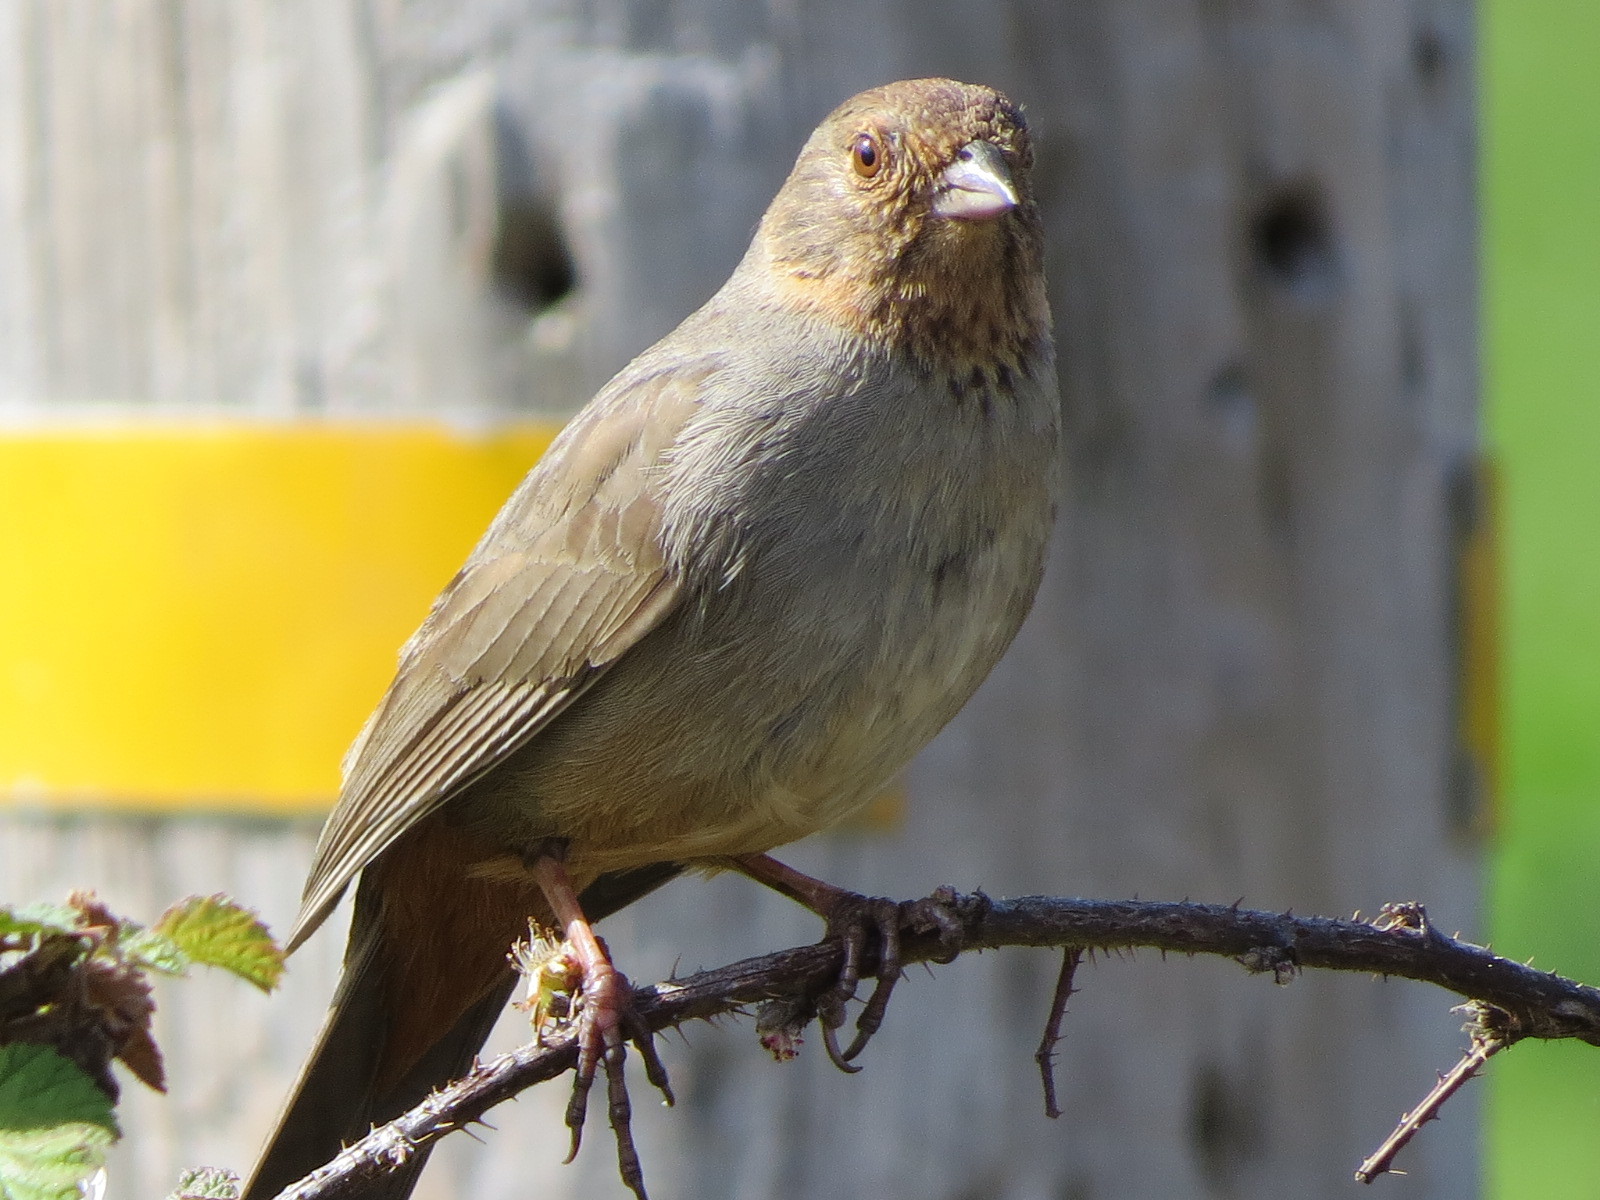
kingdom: Animalia
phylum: Chordata
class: Aves
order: Passeriformes
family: Passerellidae
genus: Melozone
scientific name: Melozone crissalis
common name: California towhee
